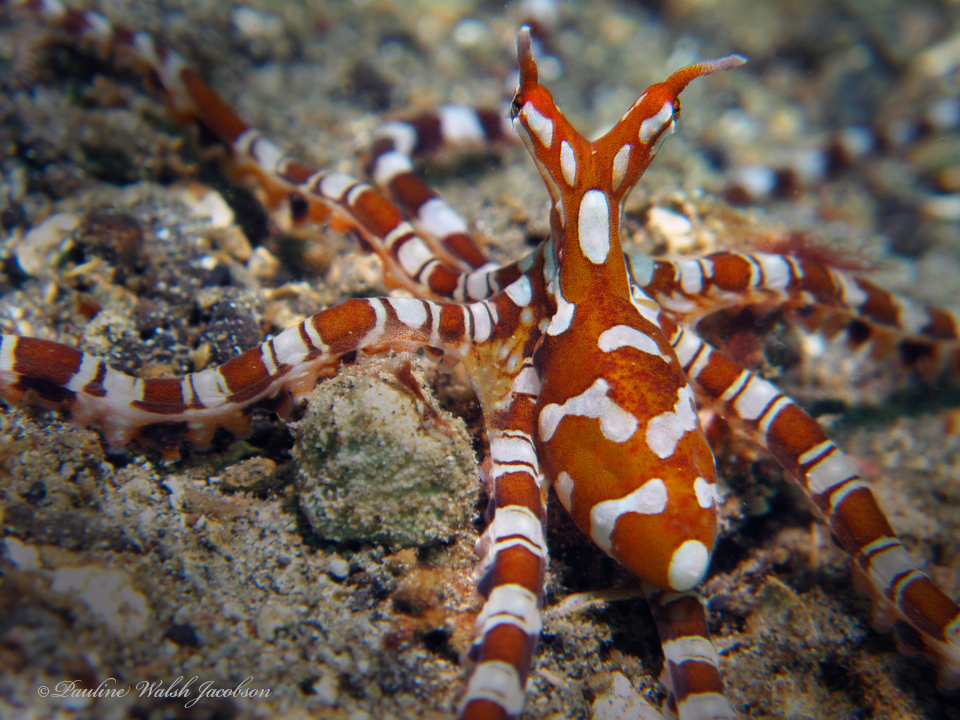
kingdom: Animalia
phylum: Mollusca
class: Cephalopoda
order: Octopoda
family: Octopodidae
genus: Wunderpus
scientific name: Wunderpus photogenicus
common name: Wunderpus
